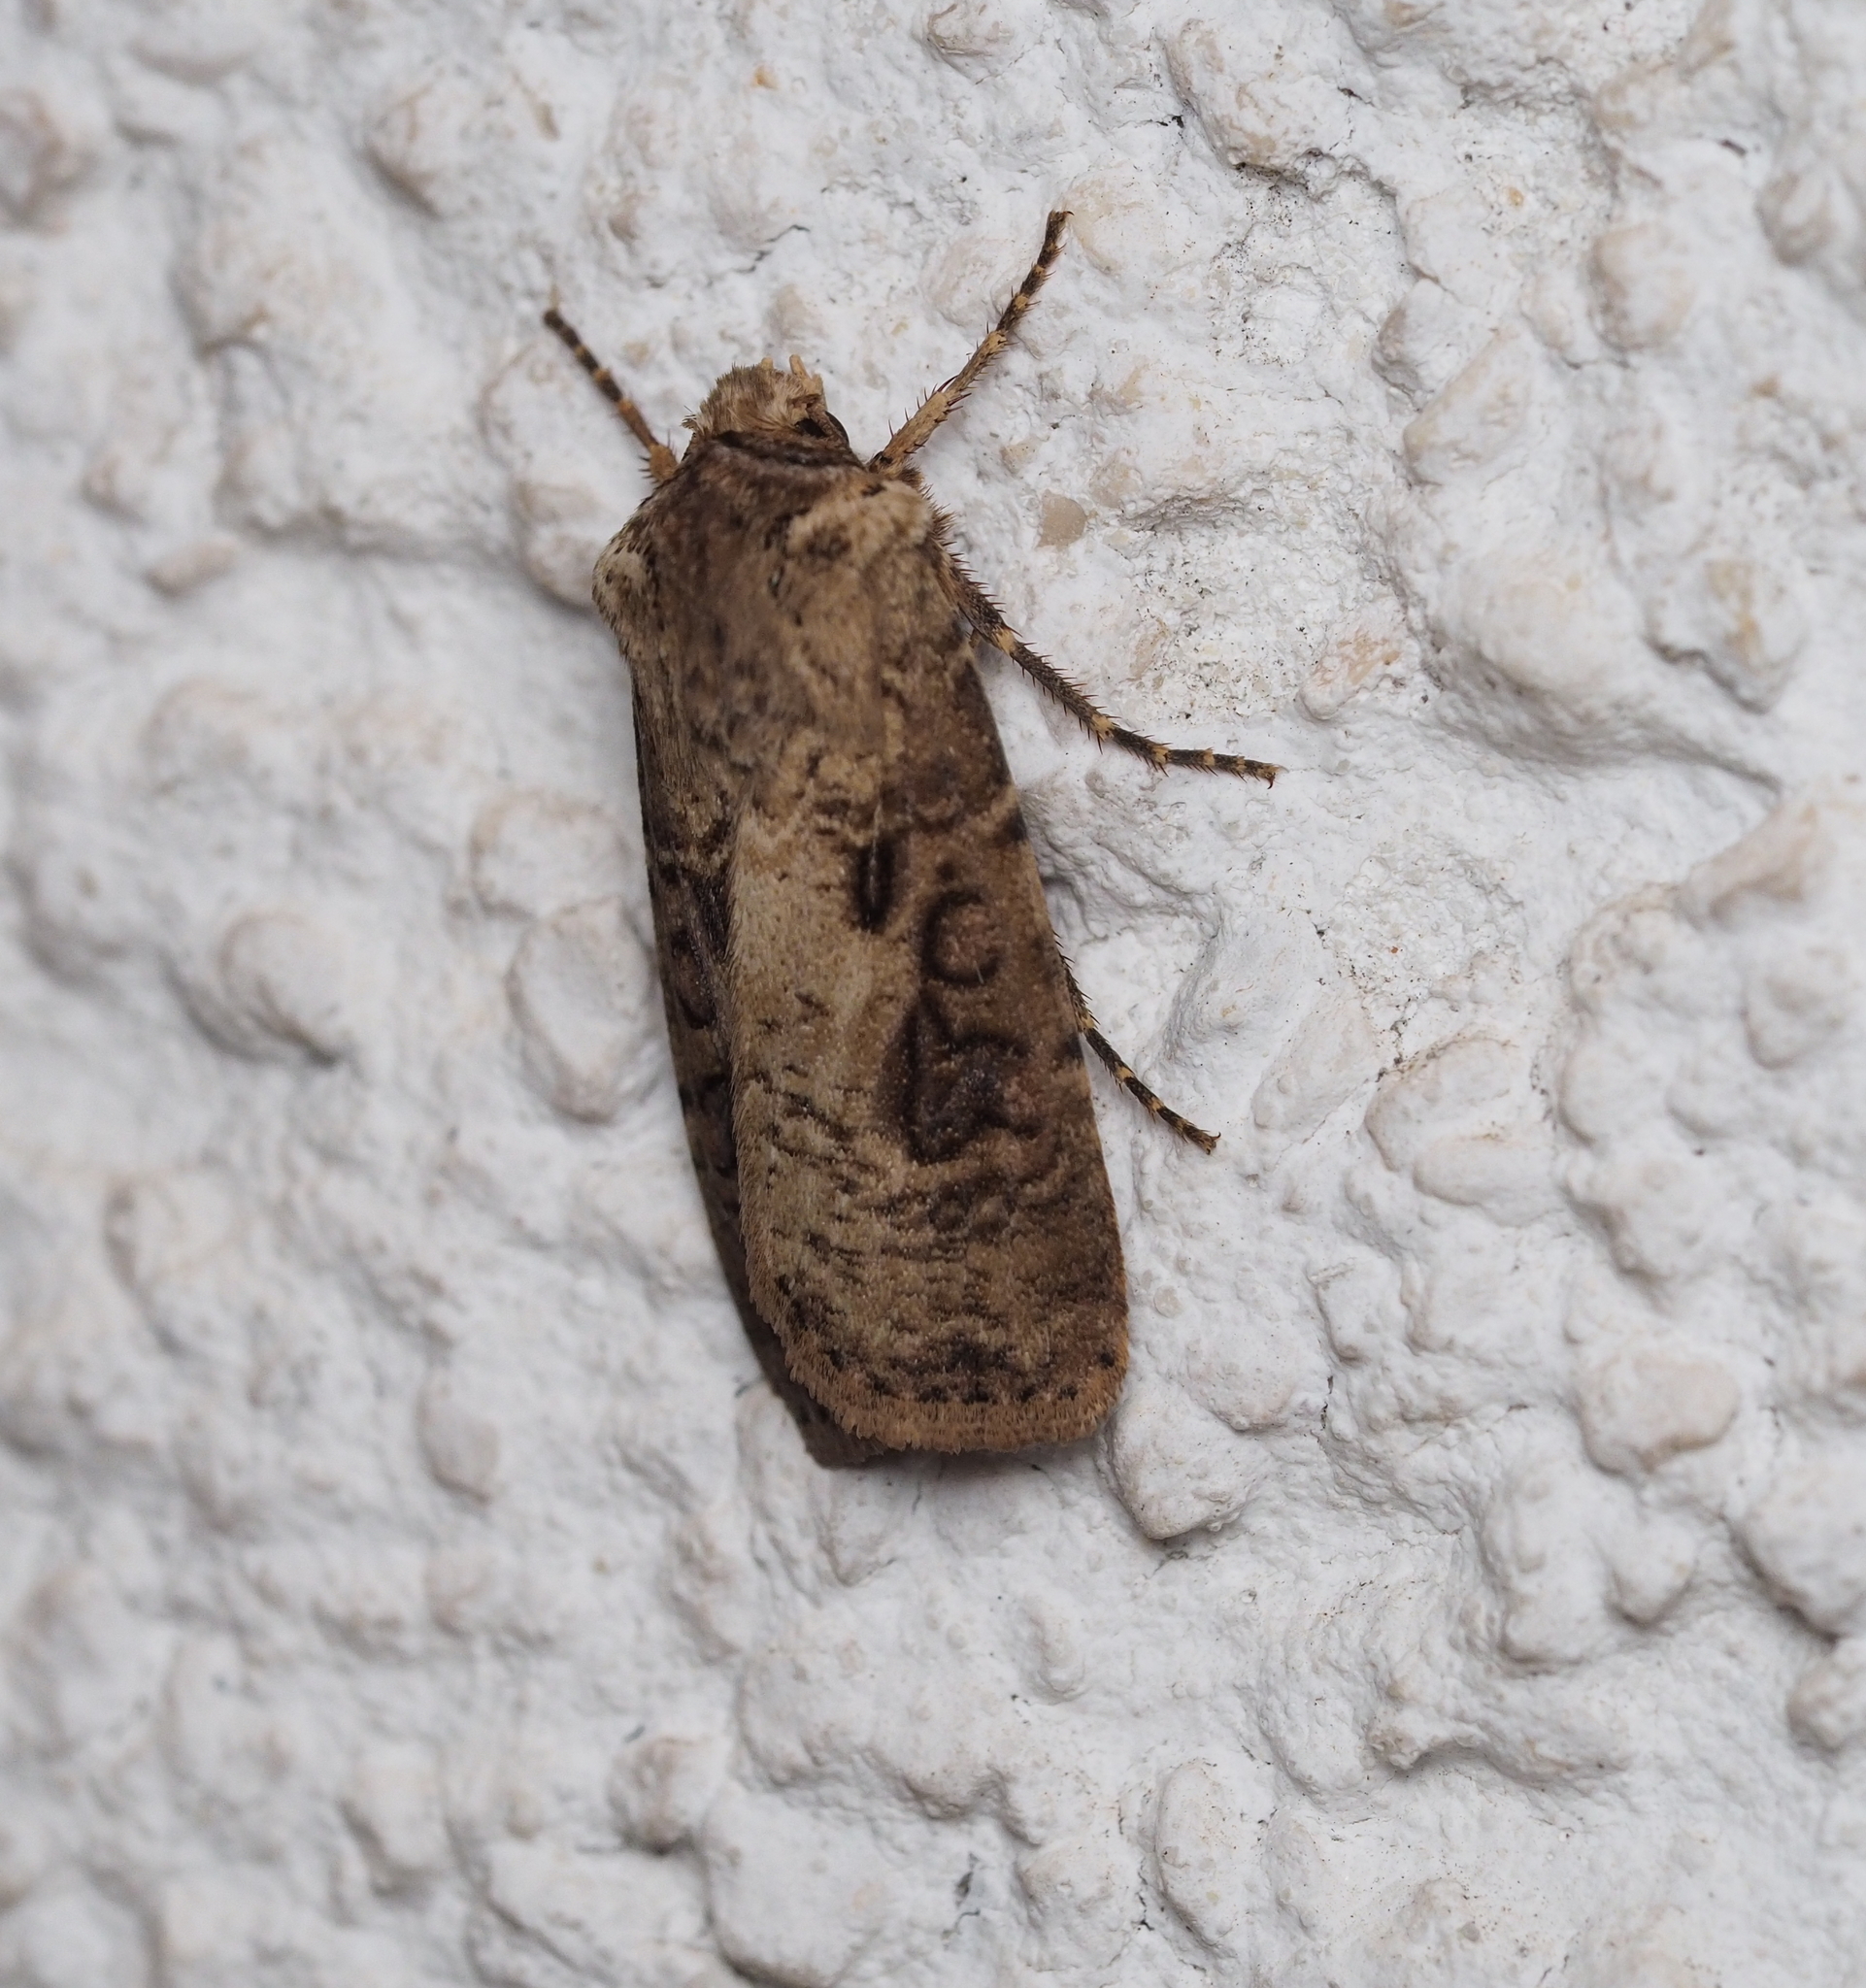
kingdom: Animalia
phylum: Arthropoda
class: Insecta
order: Lepidoptera
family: Noctuidae
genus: Agrotis
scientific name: Agrotis clavis
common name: Heart and club
